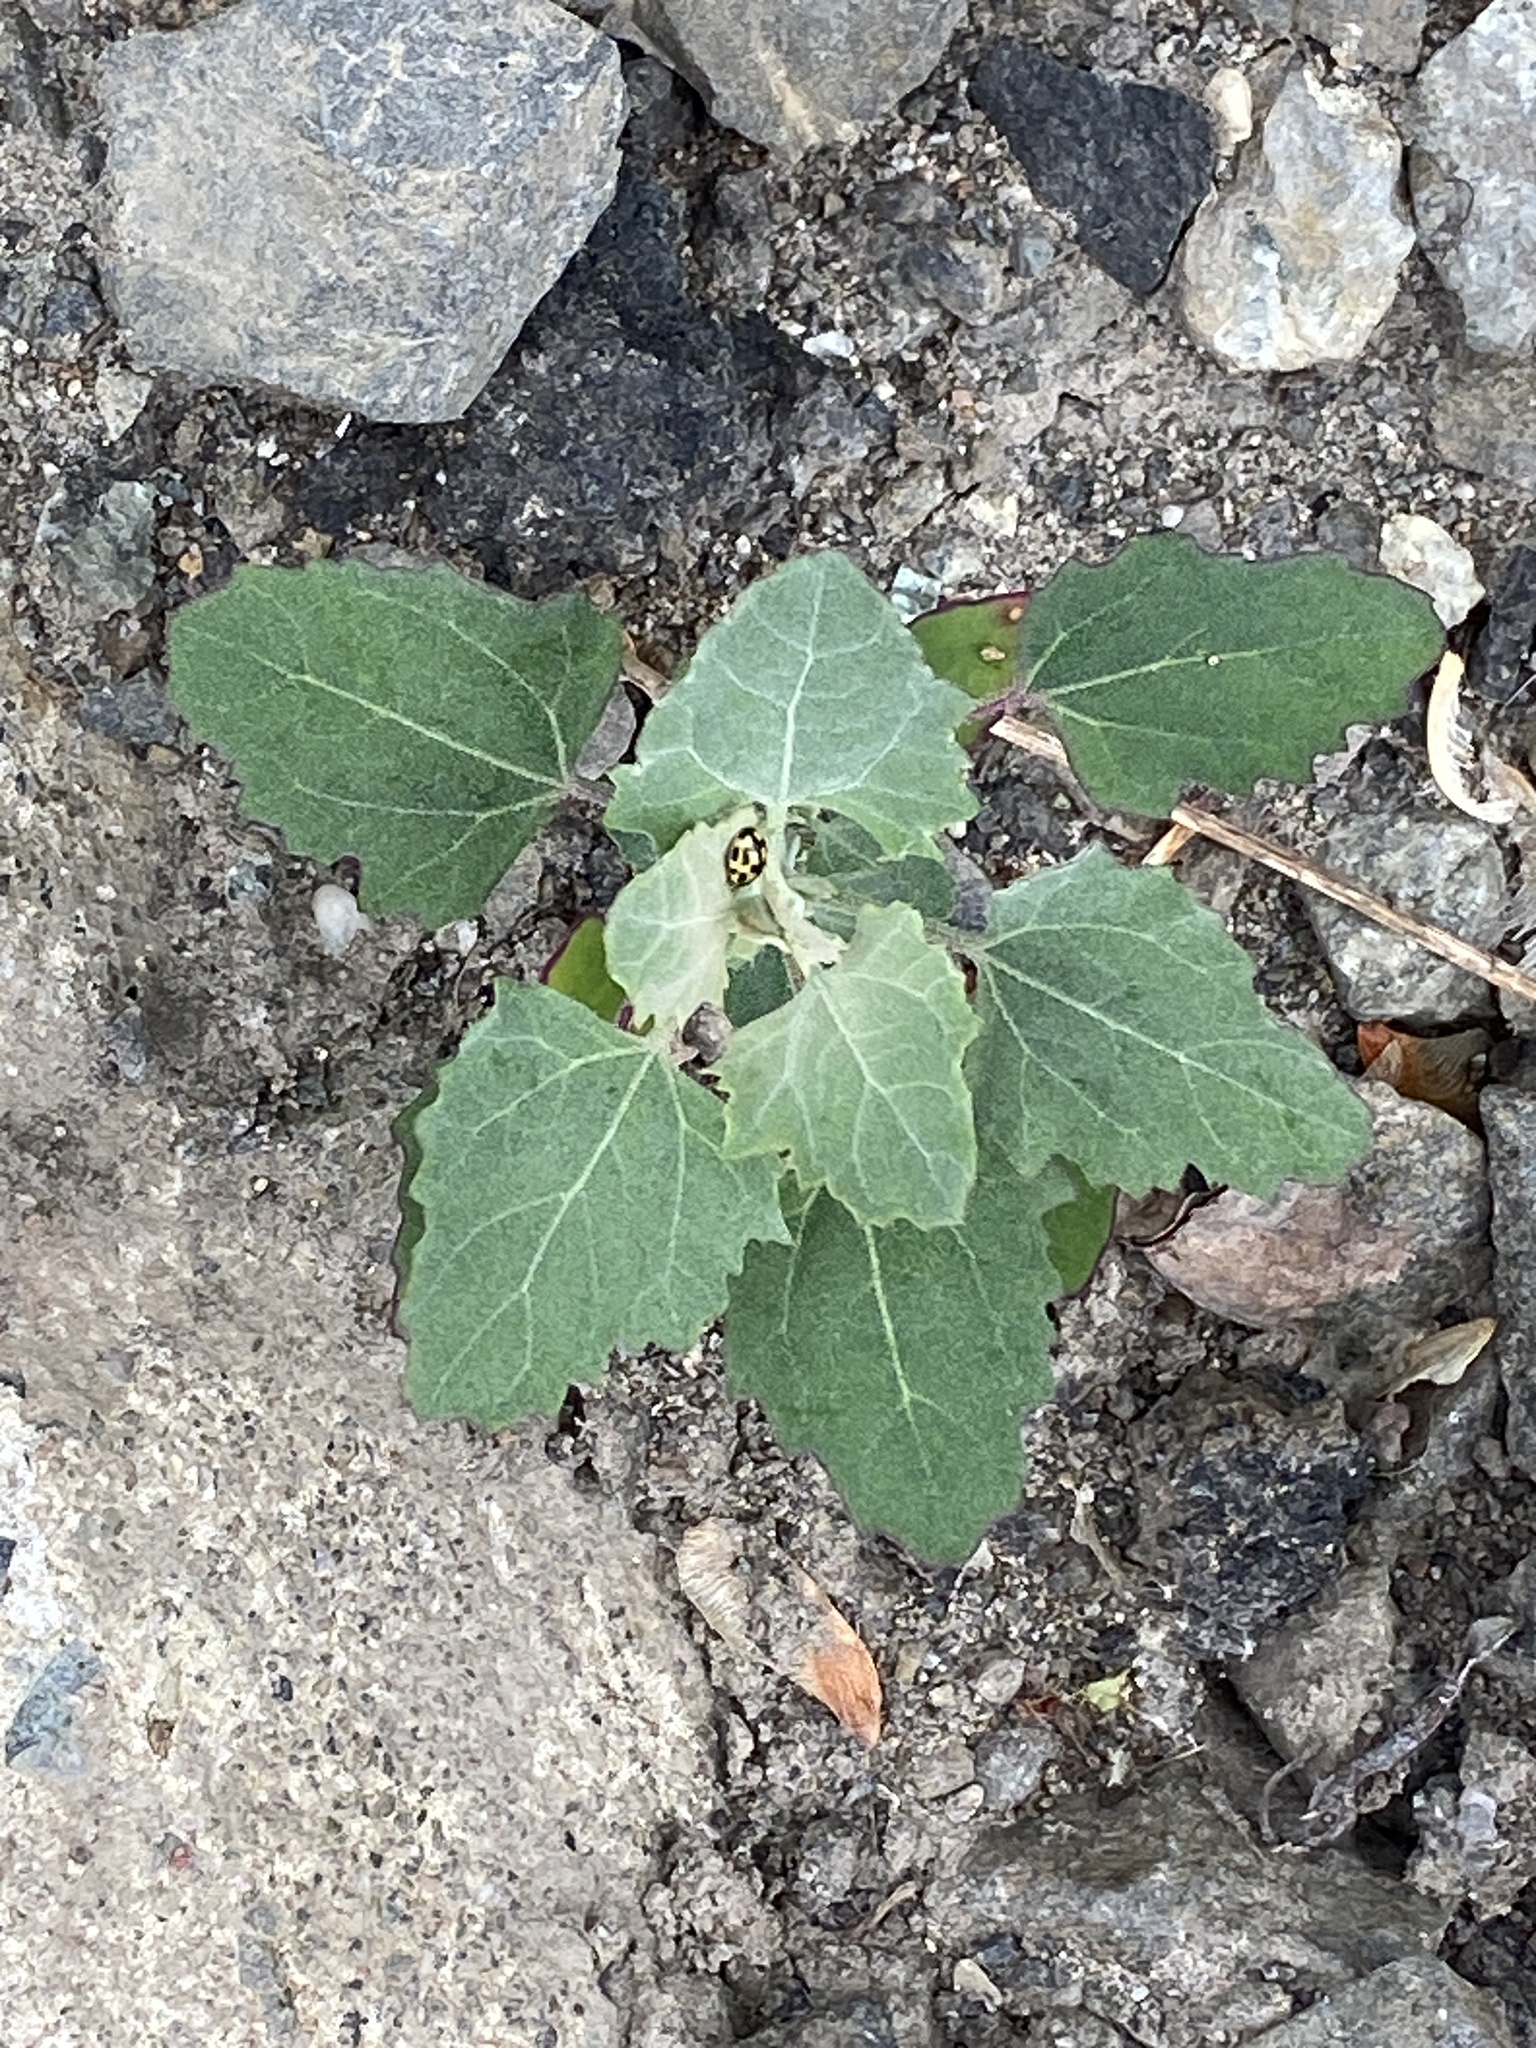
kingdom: Plantae
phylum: Tracheophyta
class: Magnoliopsida
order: Caryophyllales
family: Amaranthaceae
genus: Chenopodium
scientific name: Chenopodium album
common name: Fat-hen
